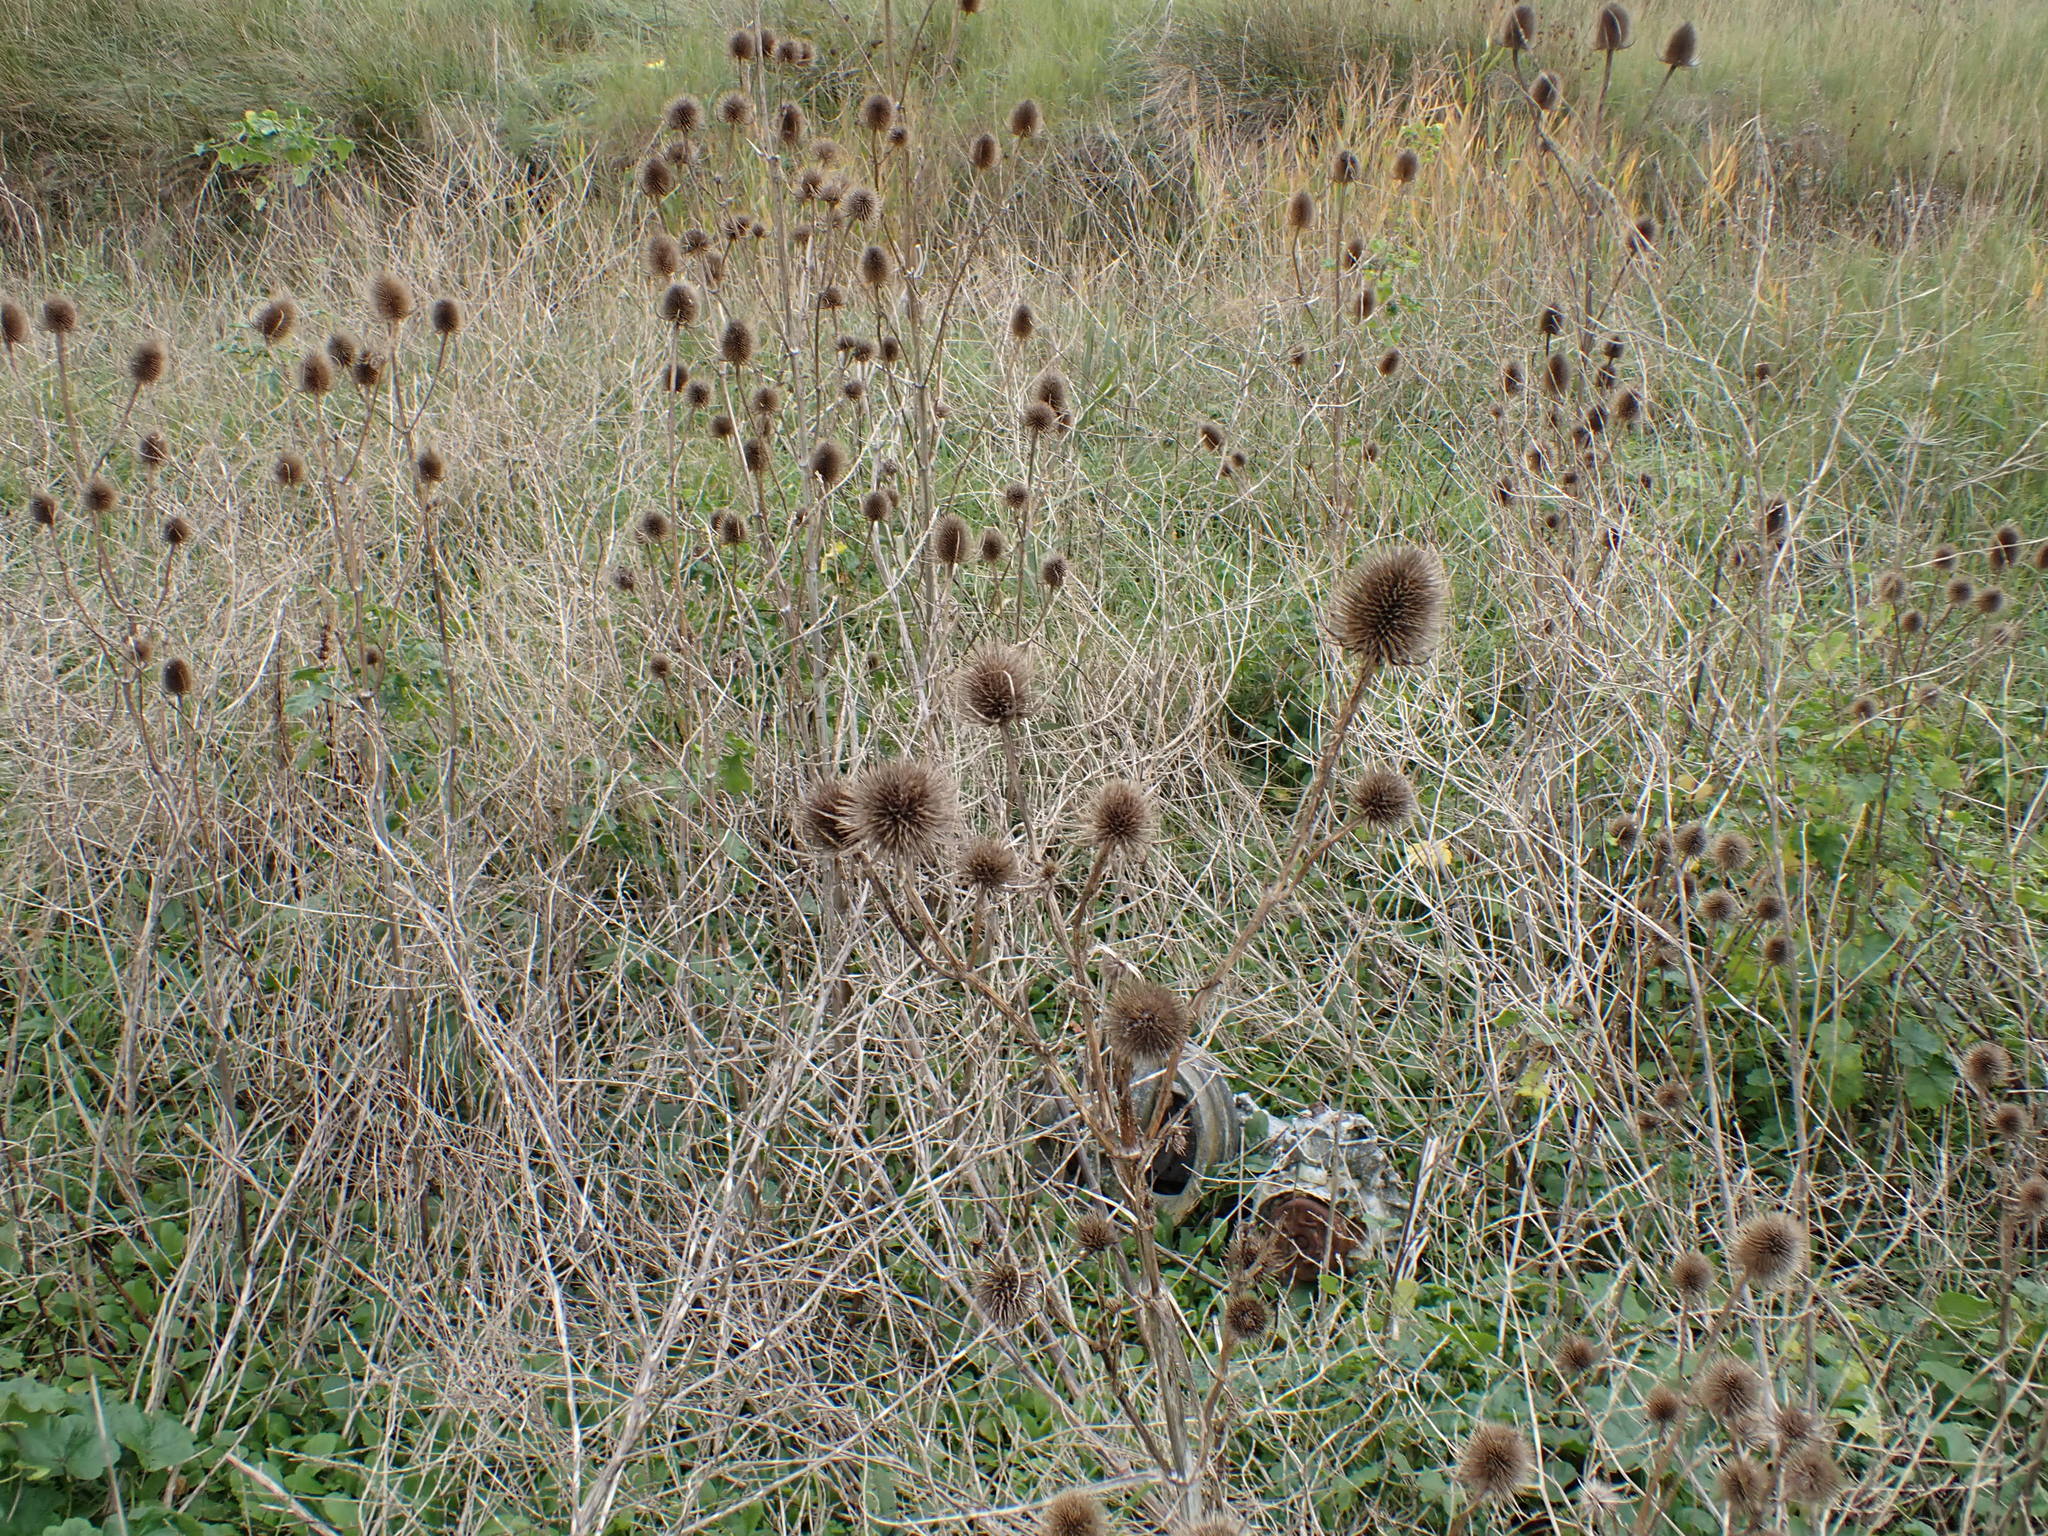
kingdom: Plantae
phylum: Tracheophyta
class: Magnoliopsida
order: Dipsacales
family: Caprifoliaceae
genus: Dipsacus
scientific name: Dipsacus fullonum
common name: Teasel
